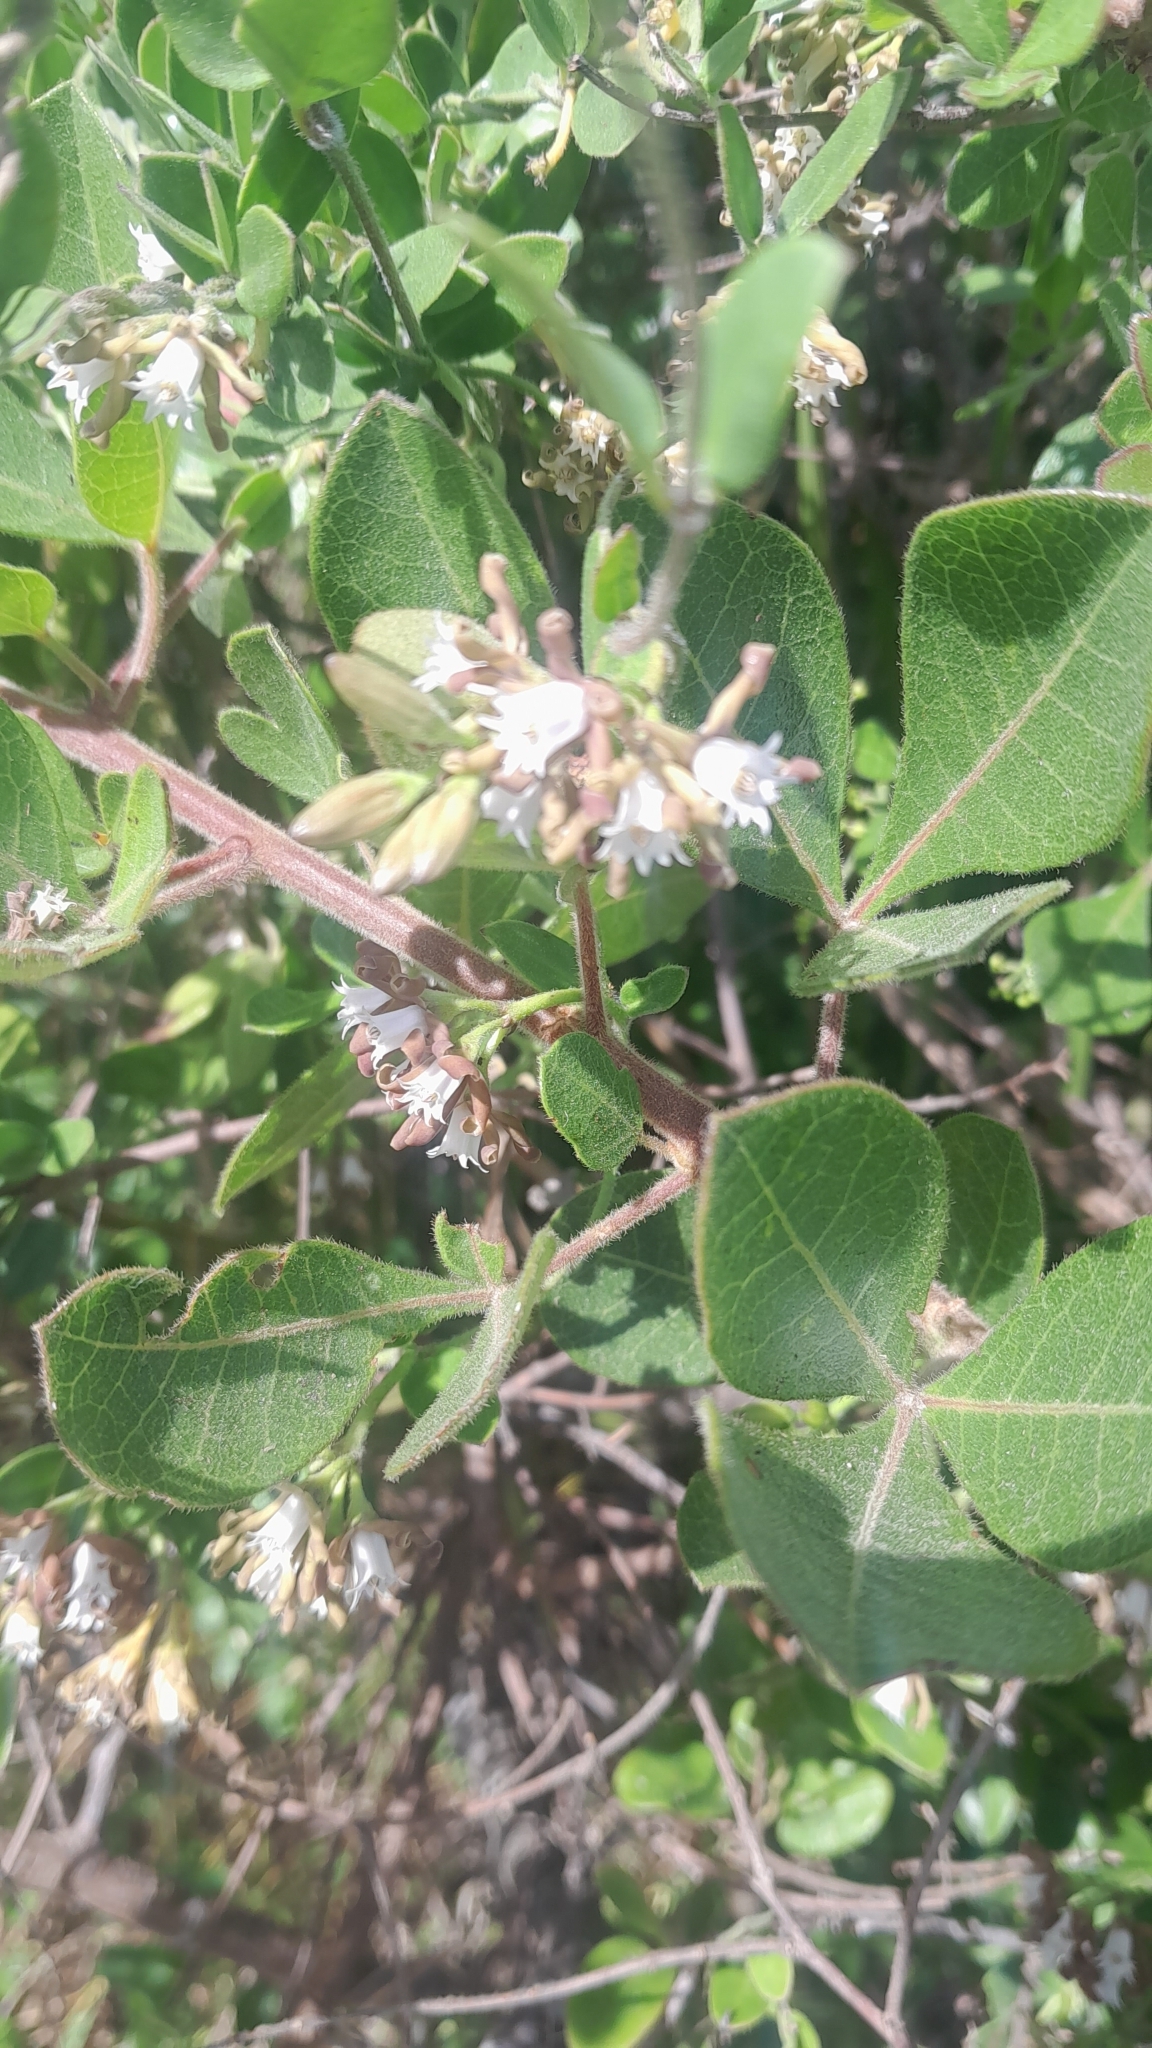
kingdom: Plantae
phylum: Tracheophyta
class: Magnoliopsida
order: Gentianales
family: Apocynaceae
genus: Cynanchum
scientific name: Cynanchum africanum
